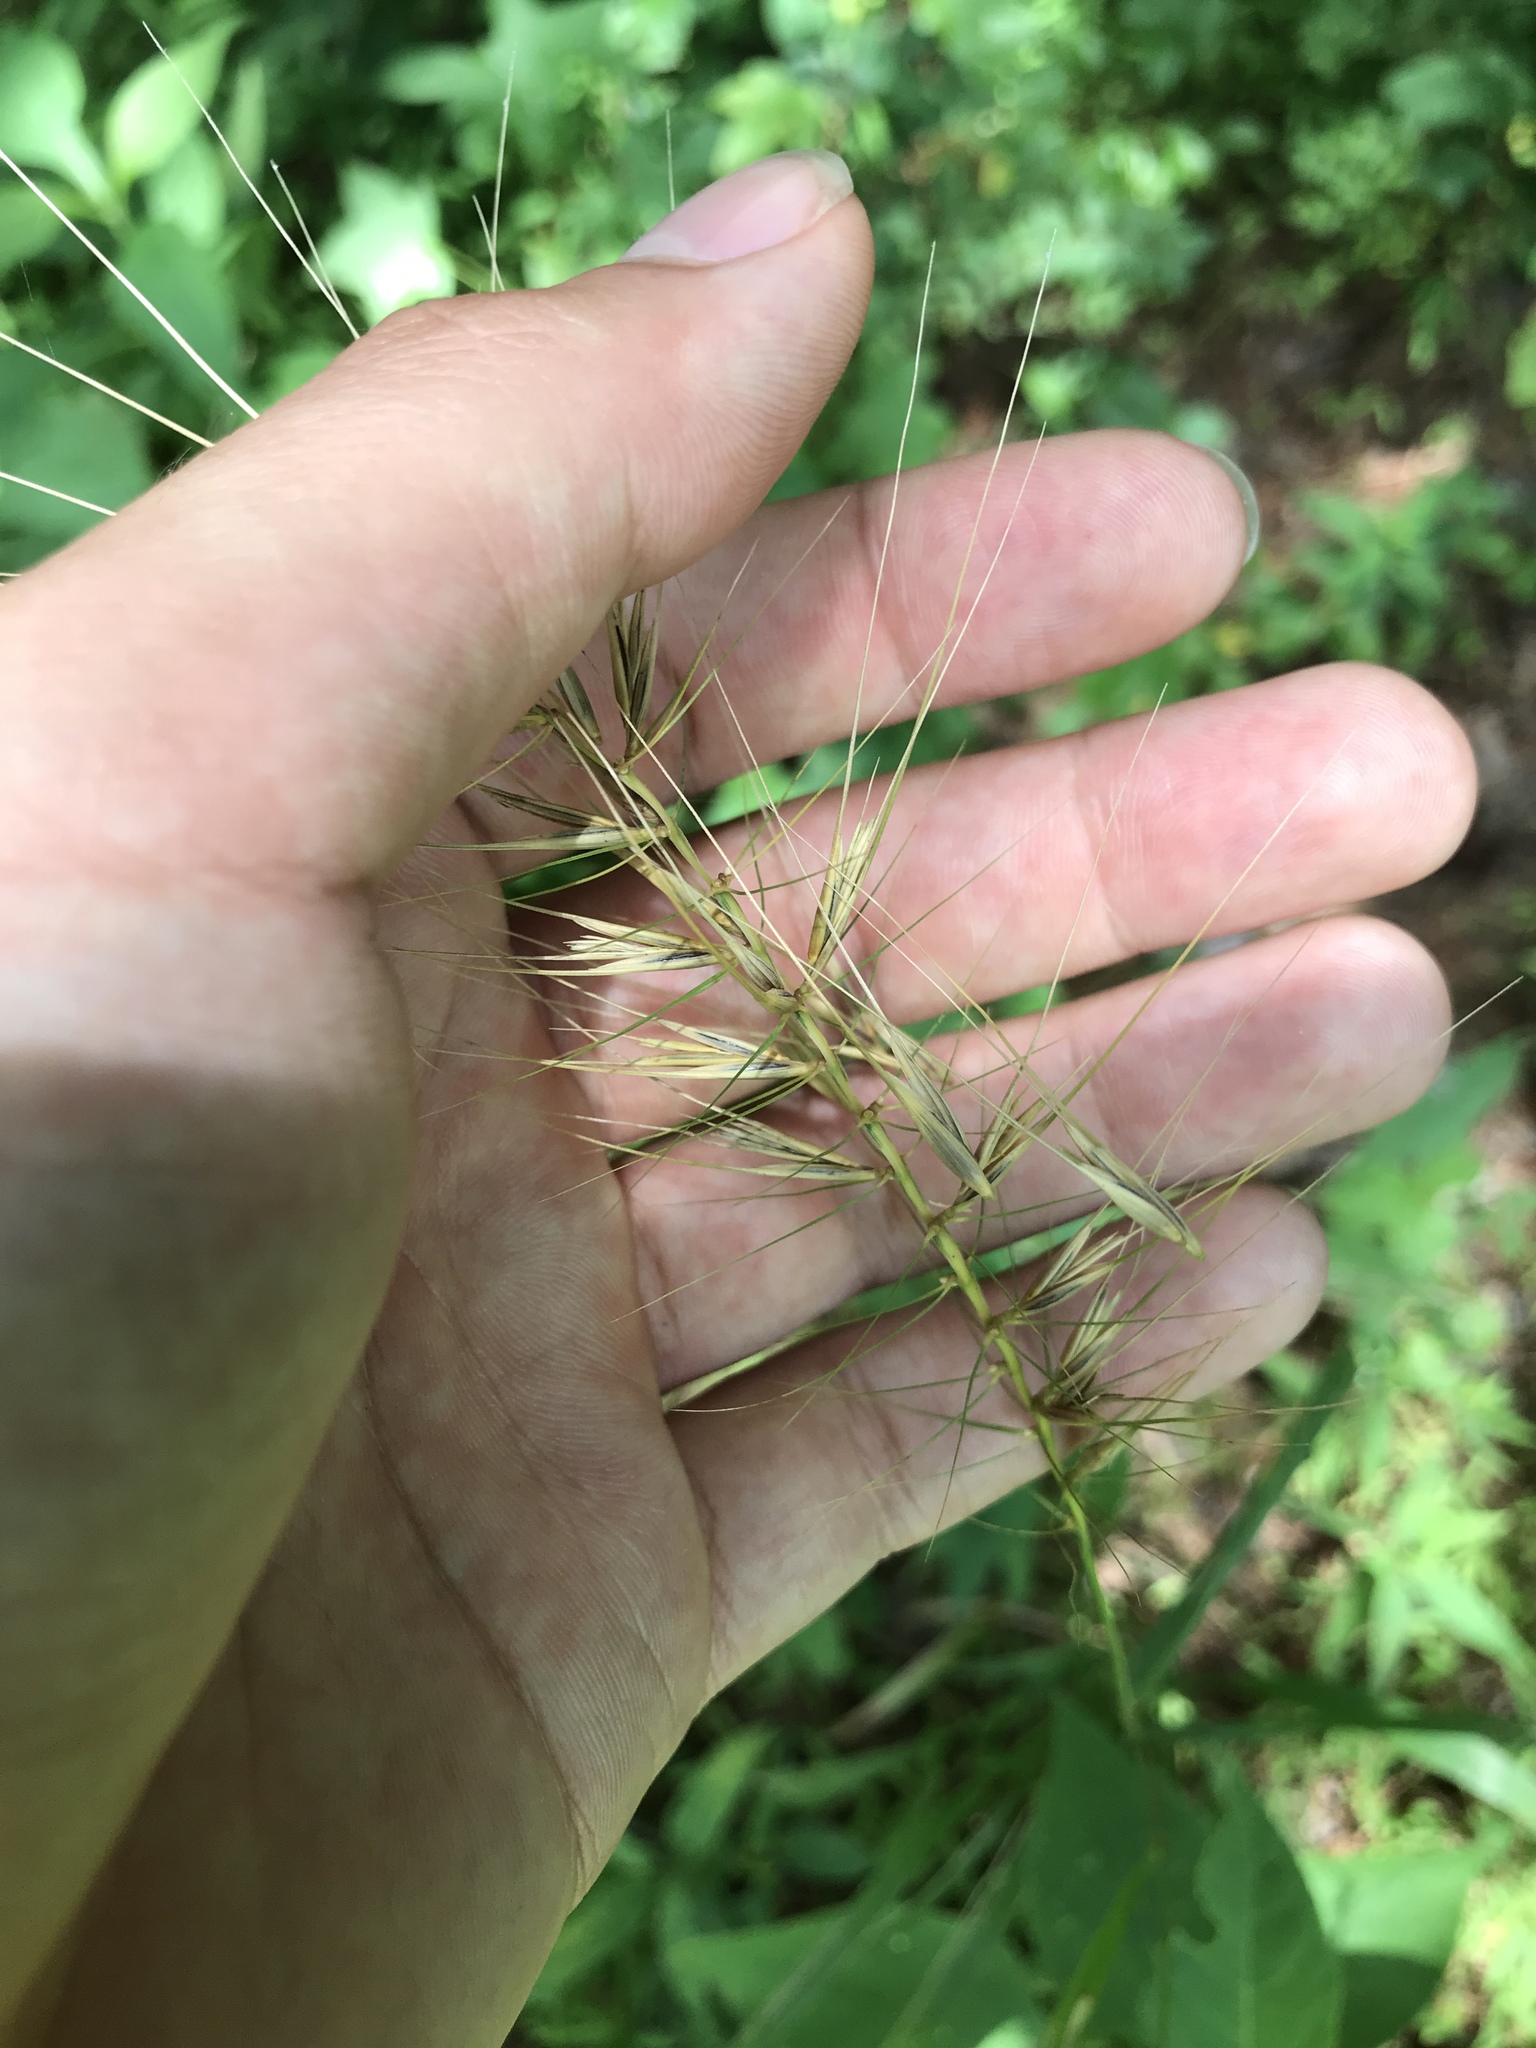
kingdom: Plantae
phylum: Tracheophyta
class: Liliopsida
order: Poales
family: Poaceae
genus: Elymus
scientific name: Elymus hystrix
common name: Bottlebrush grass
